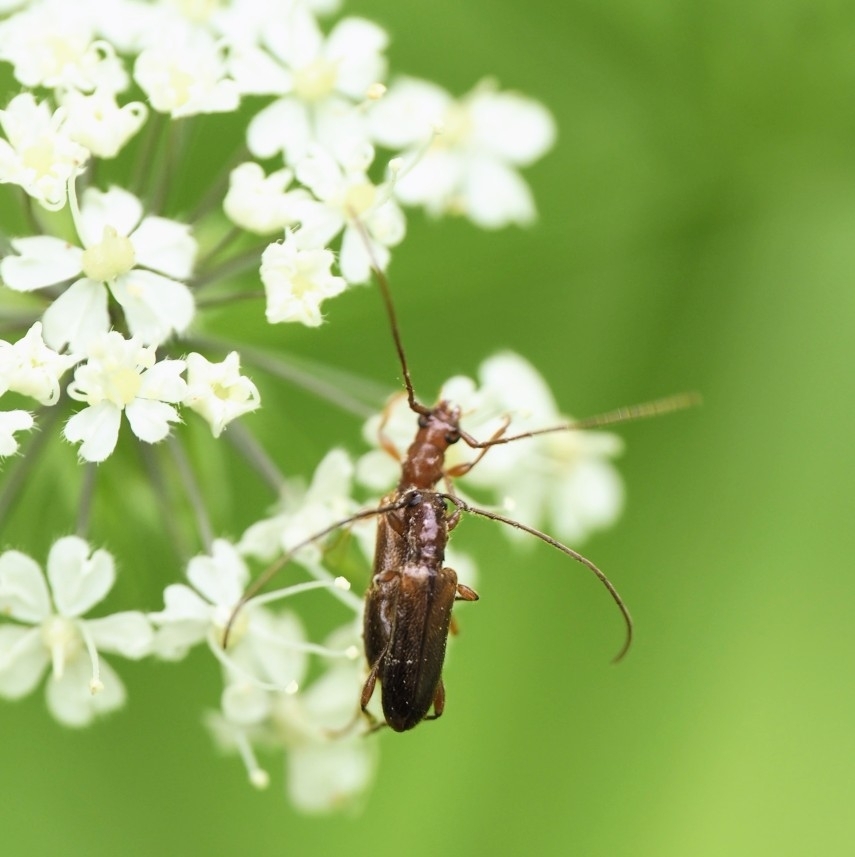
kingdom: Animalia
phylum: Arthropoda
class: Insecta
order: Coleoptera
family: Cerambycidae
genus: Obrium
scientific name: Obrium brunneum
